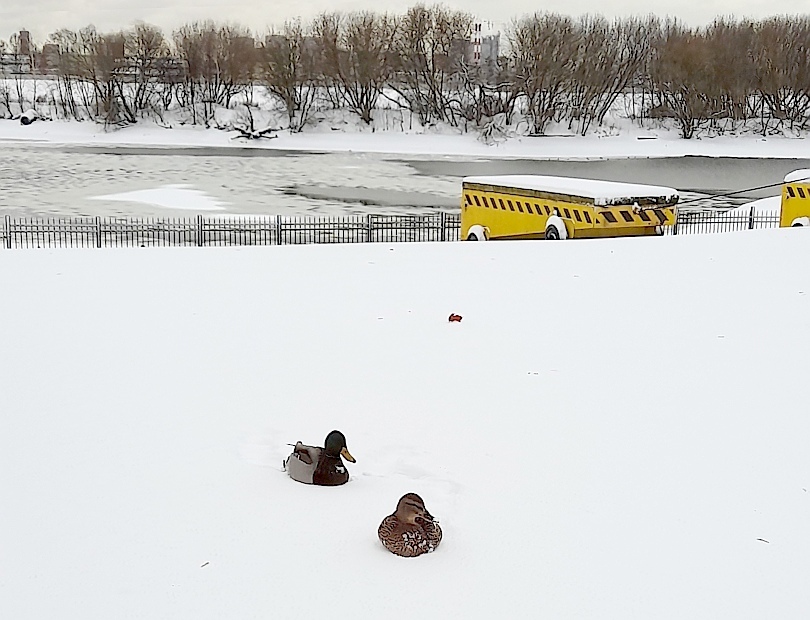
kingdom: Animalia
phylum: Chordata
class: Aves
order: Anseriformes
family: Anatidae
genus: Anas
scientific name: Anas platyrhynchos
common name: Mallard
